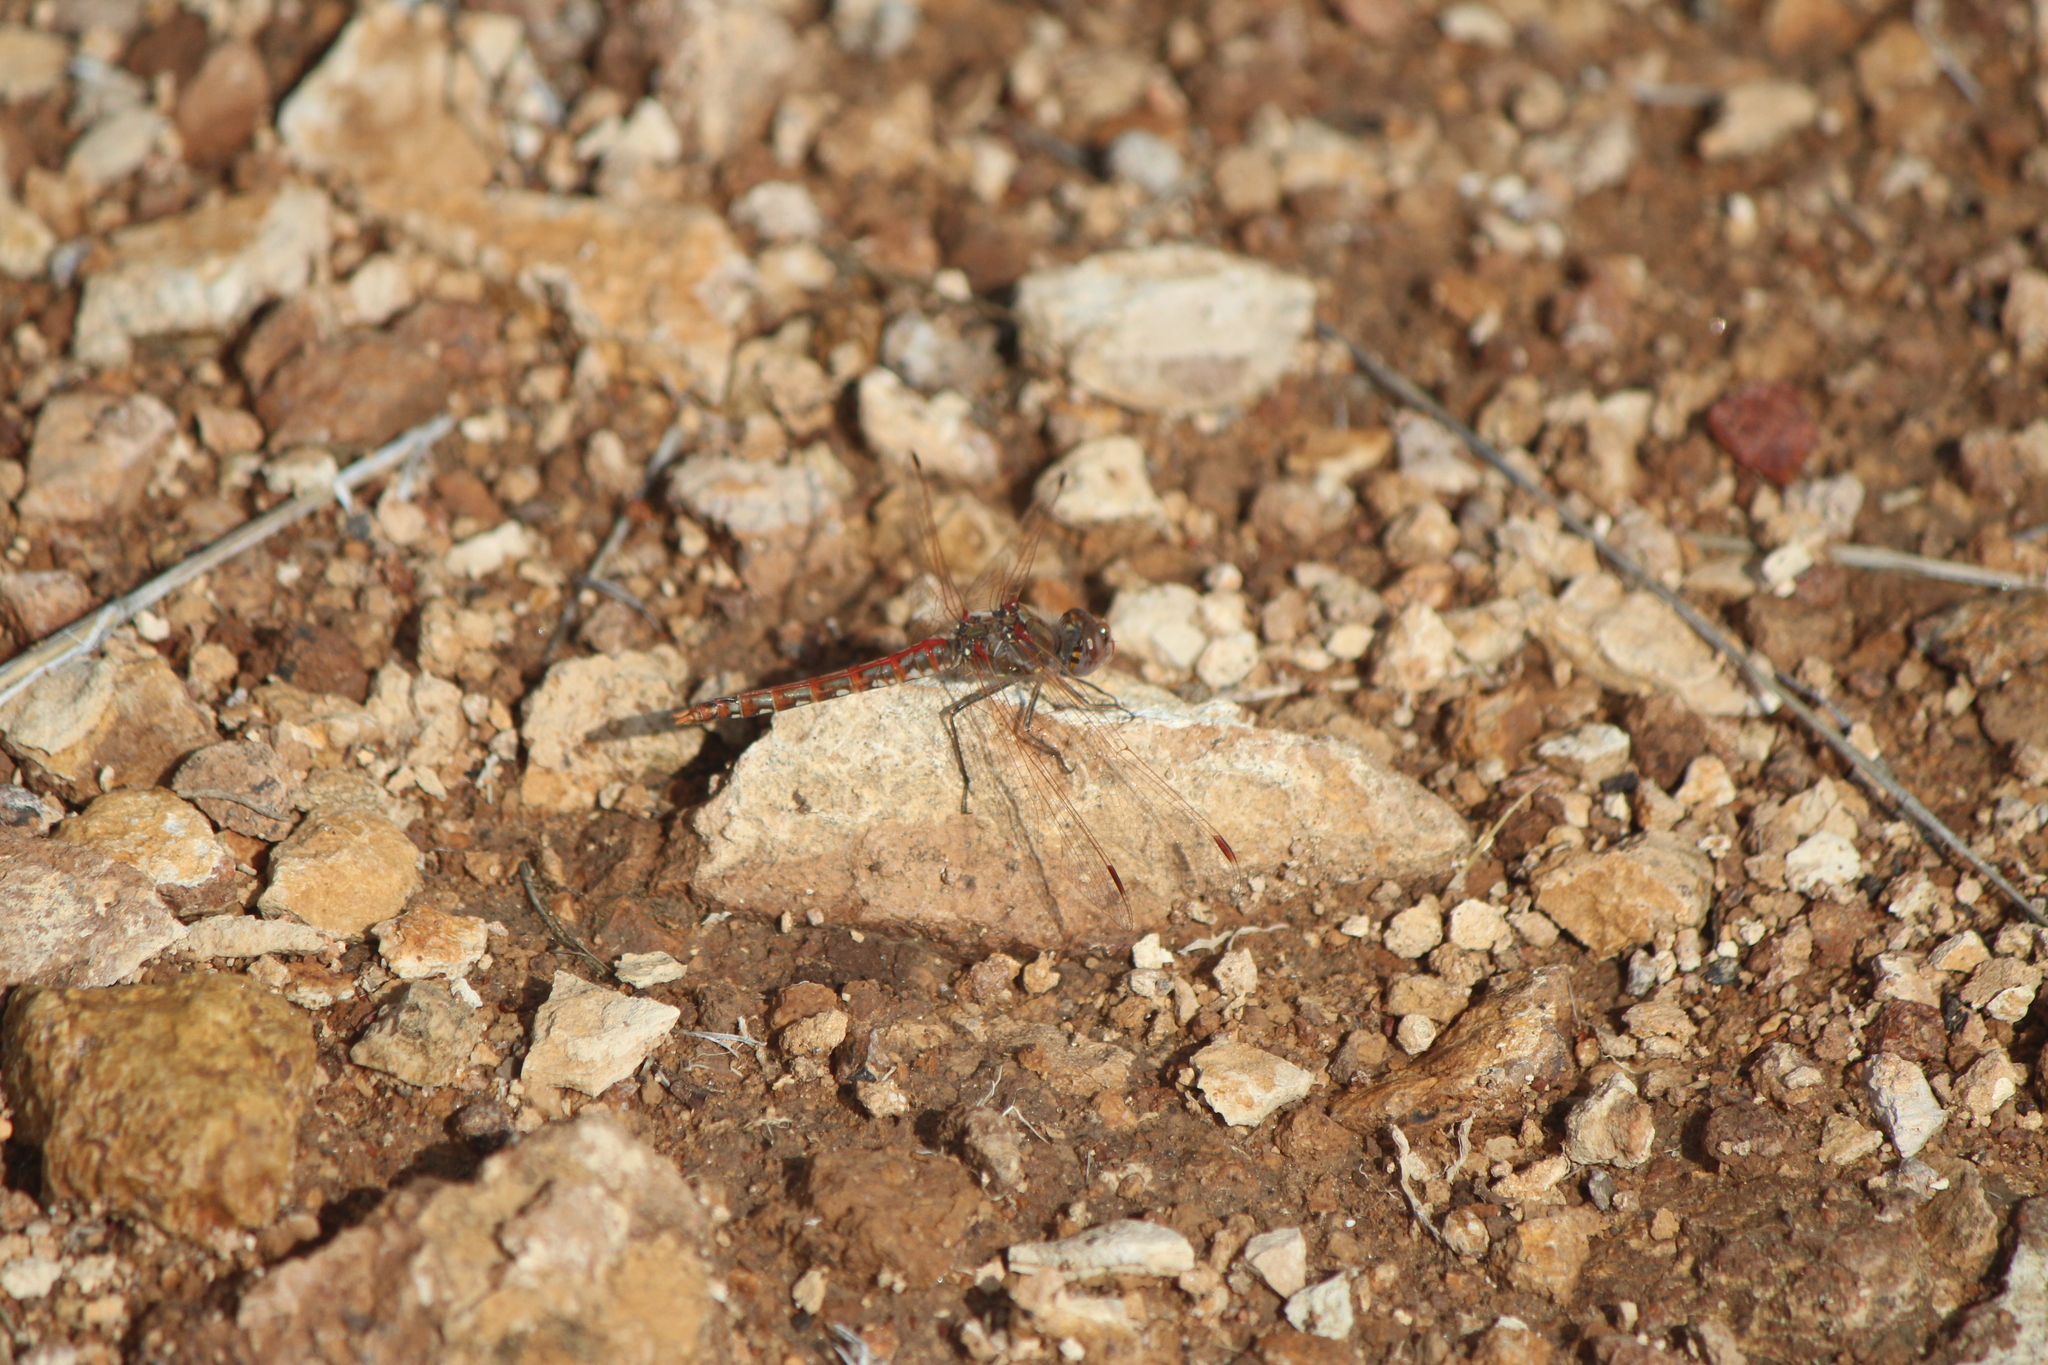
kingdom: Animalia
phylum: Arthropoda
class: Insecta
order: Odonata
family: Libellulidae
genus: Sympetrum
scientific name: Sympetrum corruptum
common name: Variegated meadowhawk
